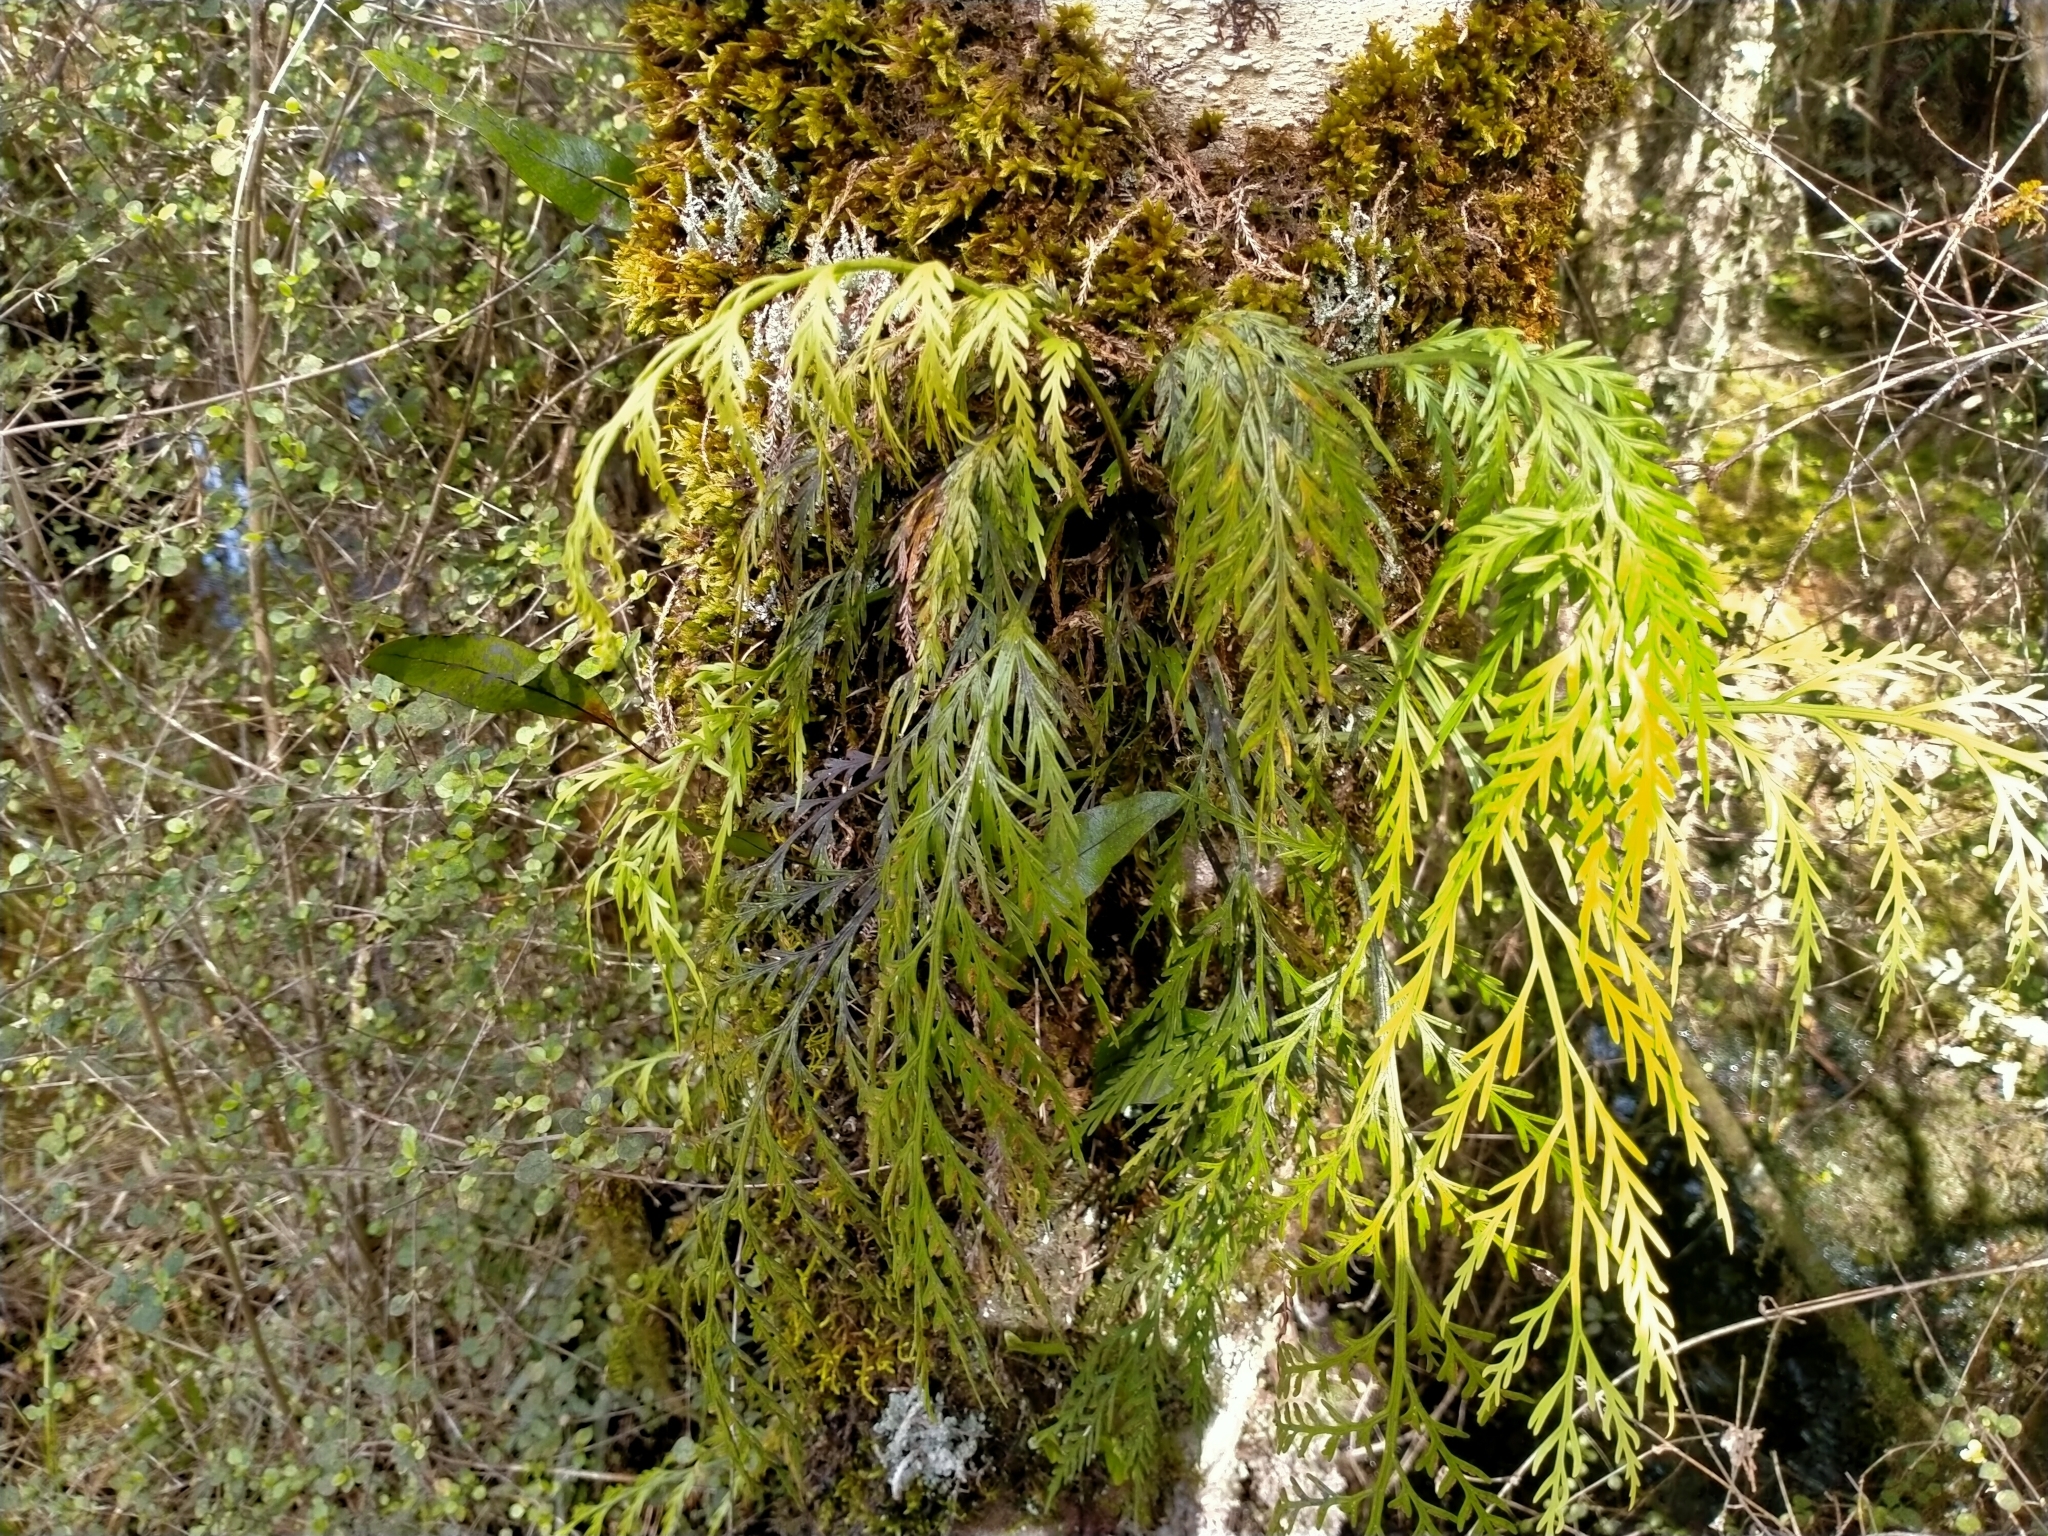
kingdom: Plantae
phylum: Tracheophyta
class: Polypodiopsida
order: Polypodiales
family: Aspleniaceae
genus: Asplenium
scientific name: Asplenium flaccidum
